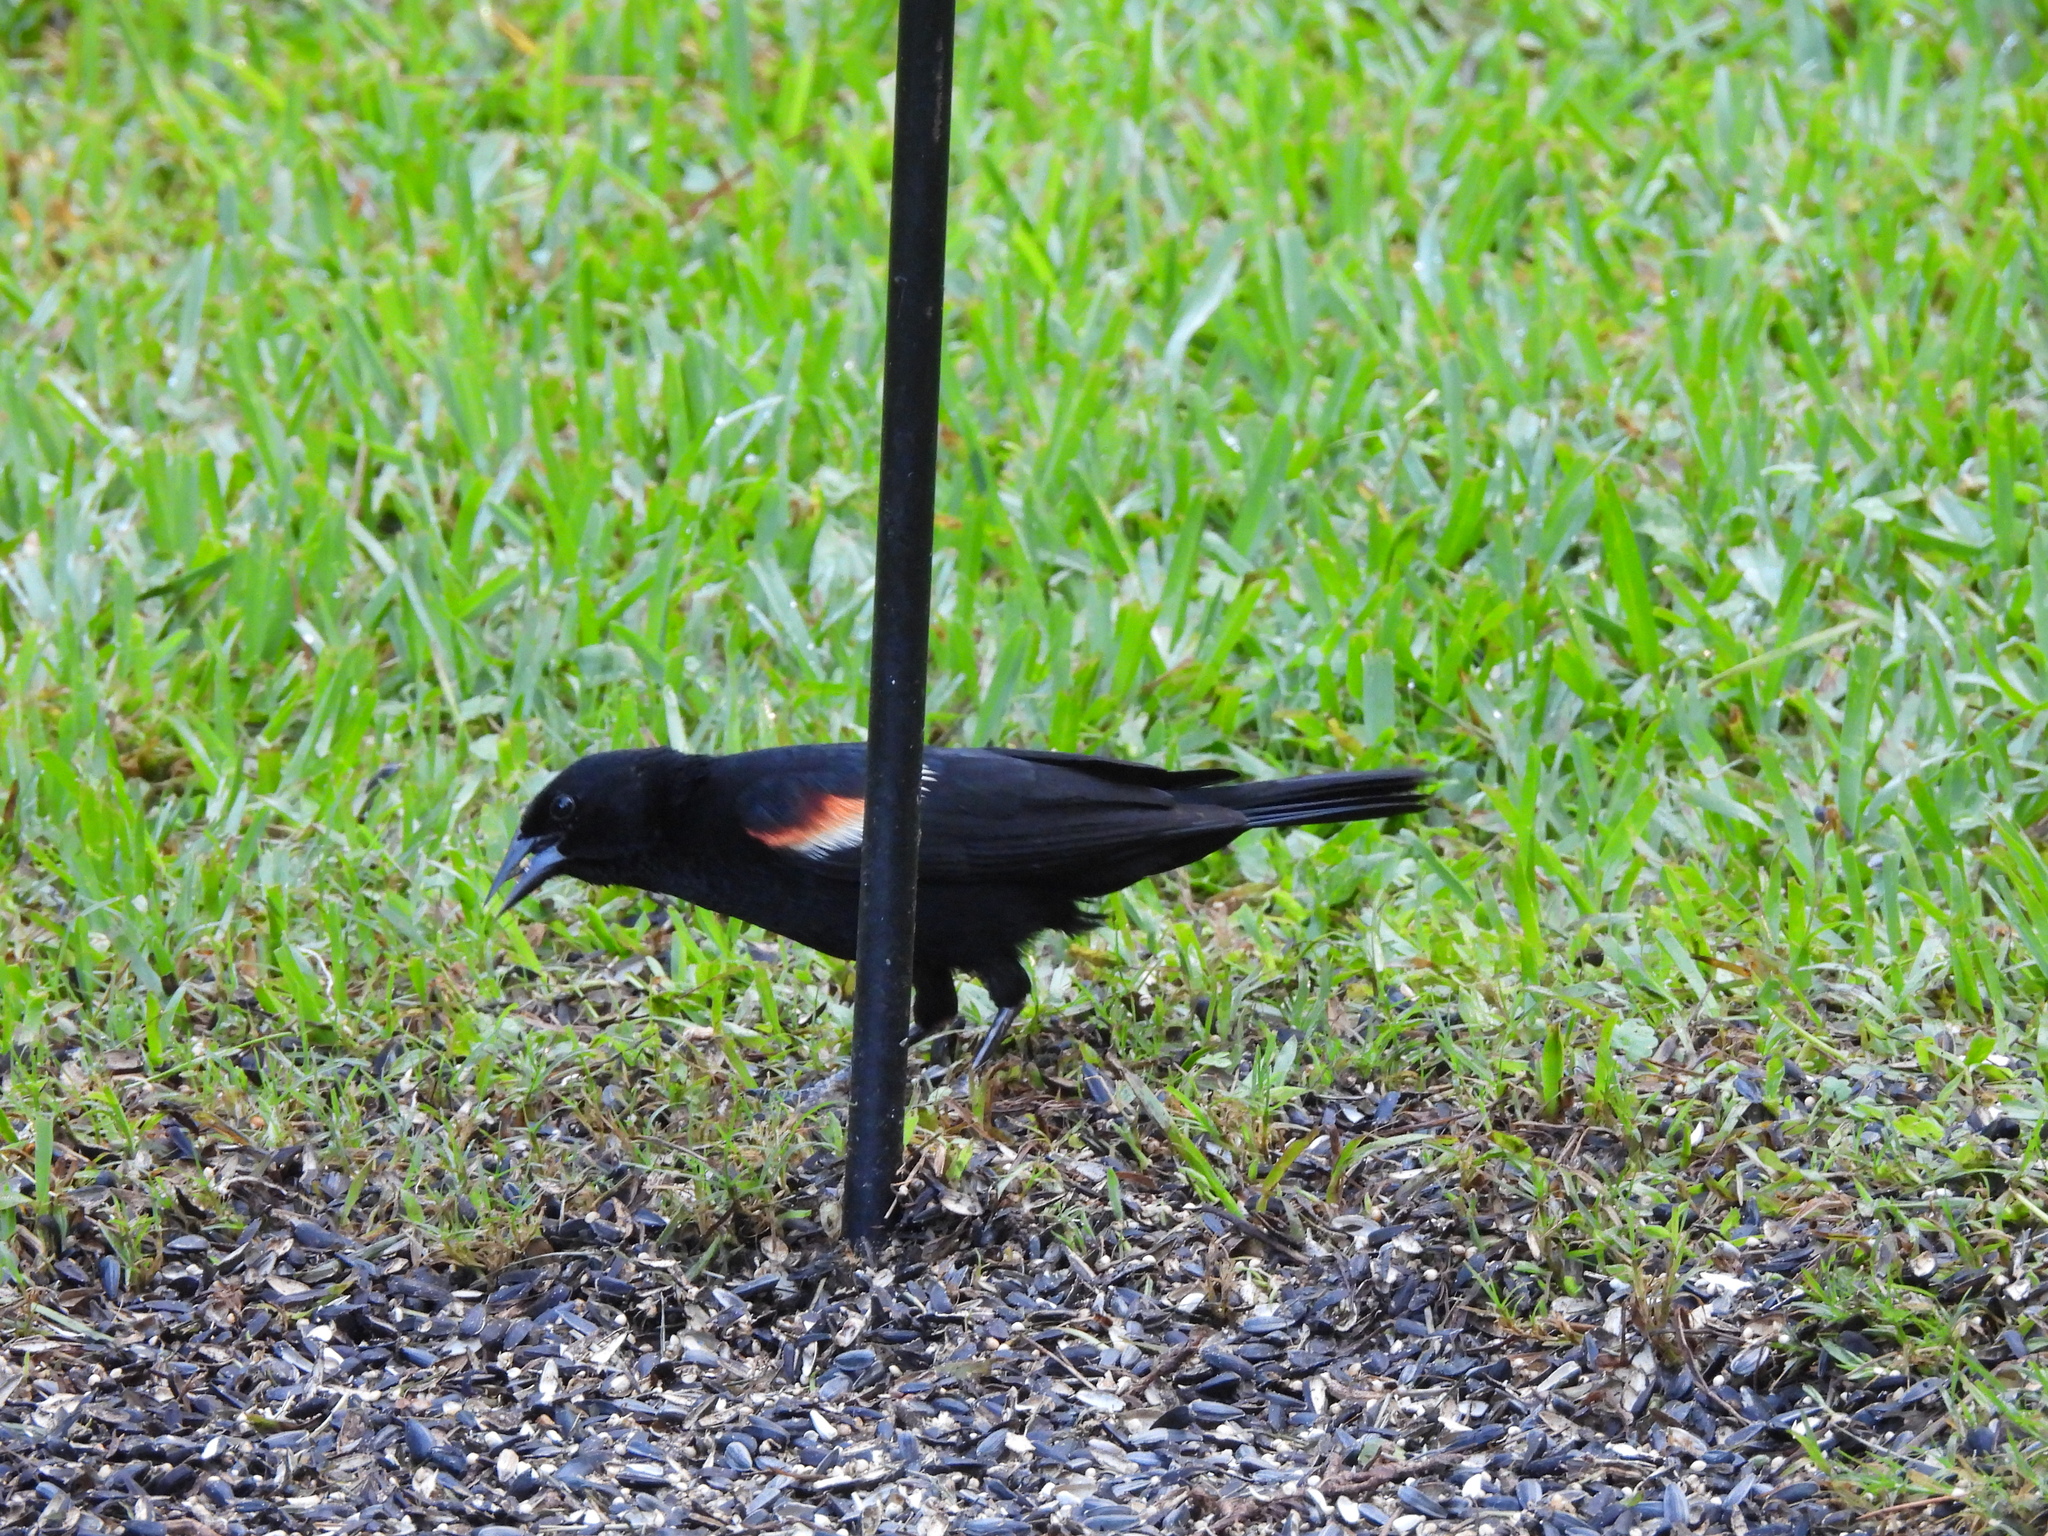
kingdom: Animalia
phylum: Chordata
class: Aves
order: Passeriformes
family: Icteridae
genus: Agelaius
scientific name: Agelaius phoeniceus
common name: Red-winged blackbird
